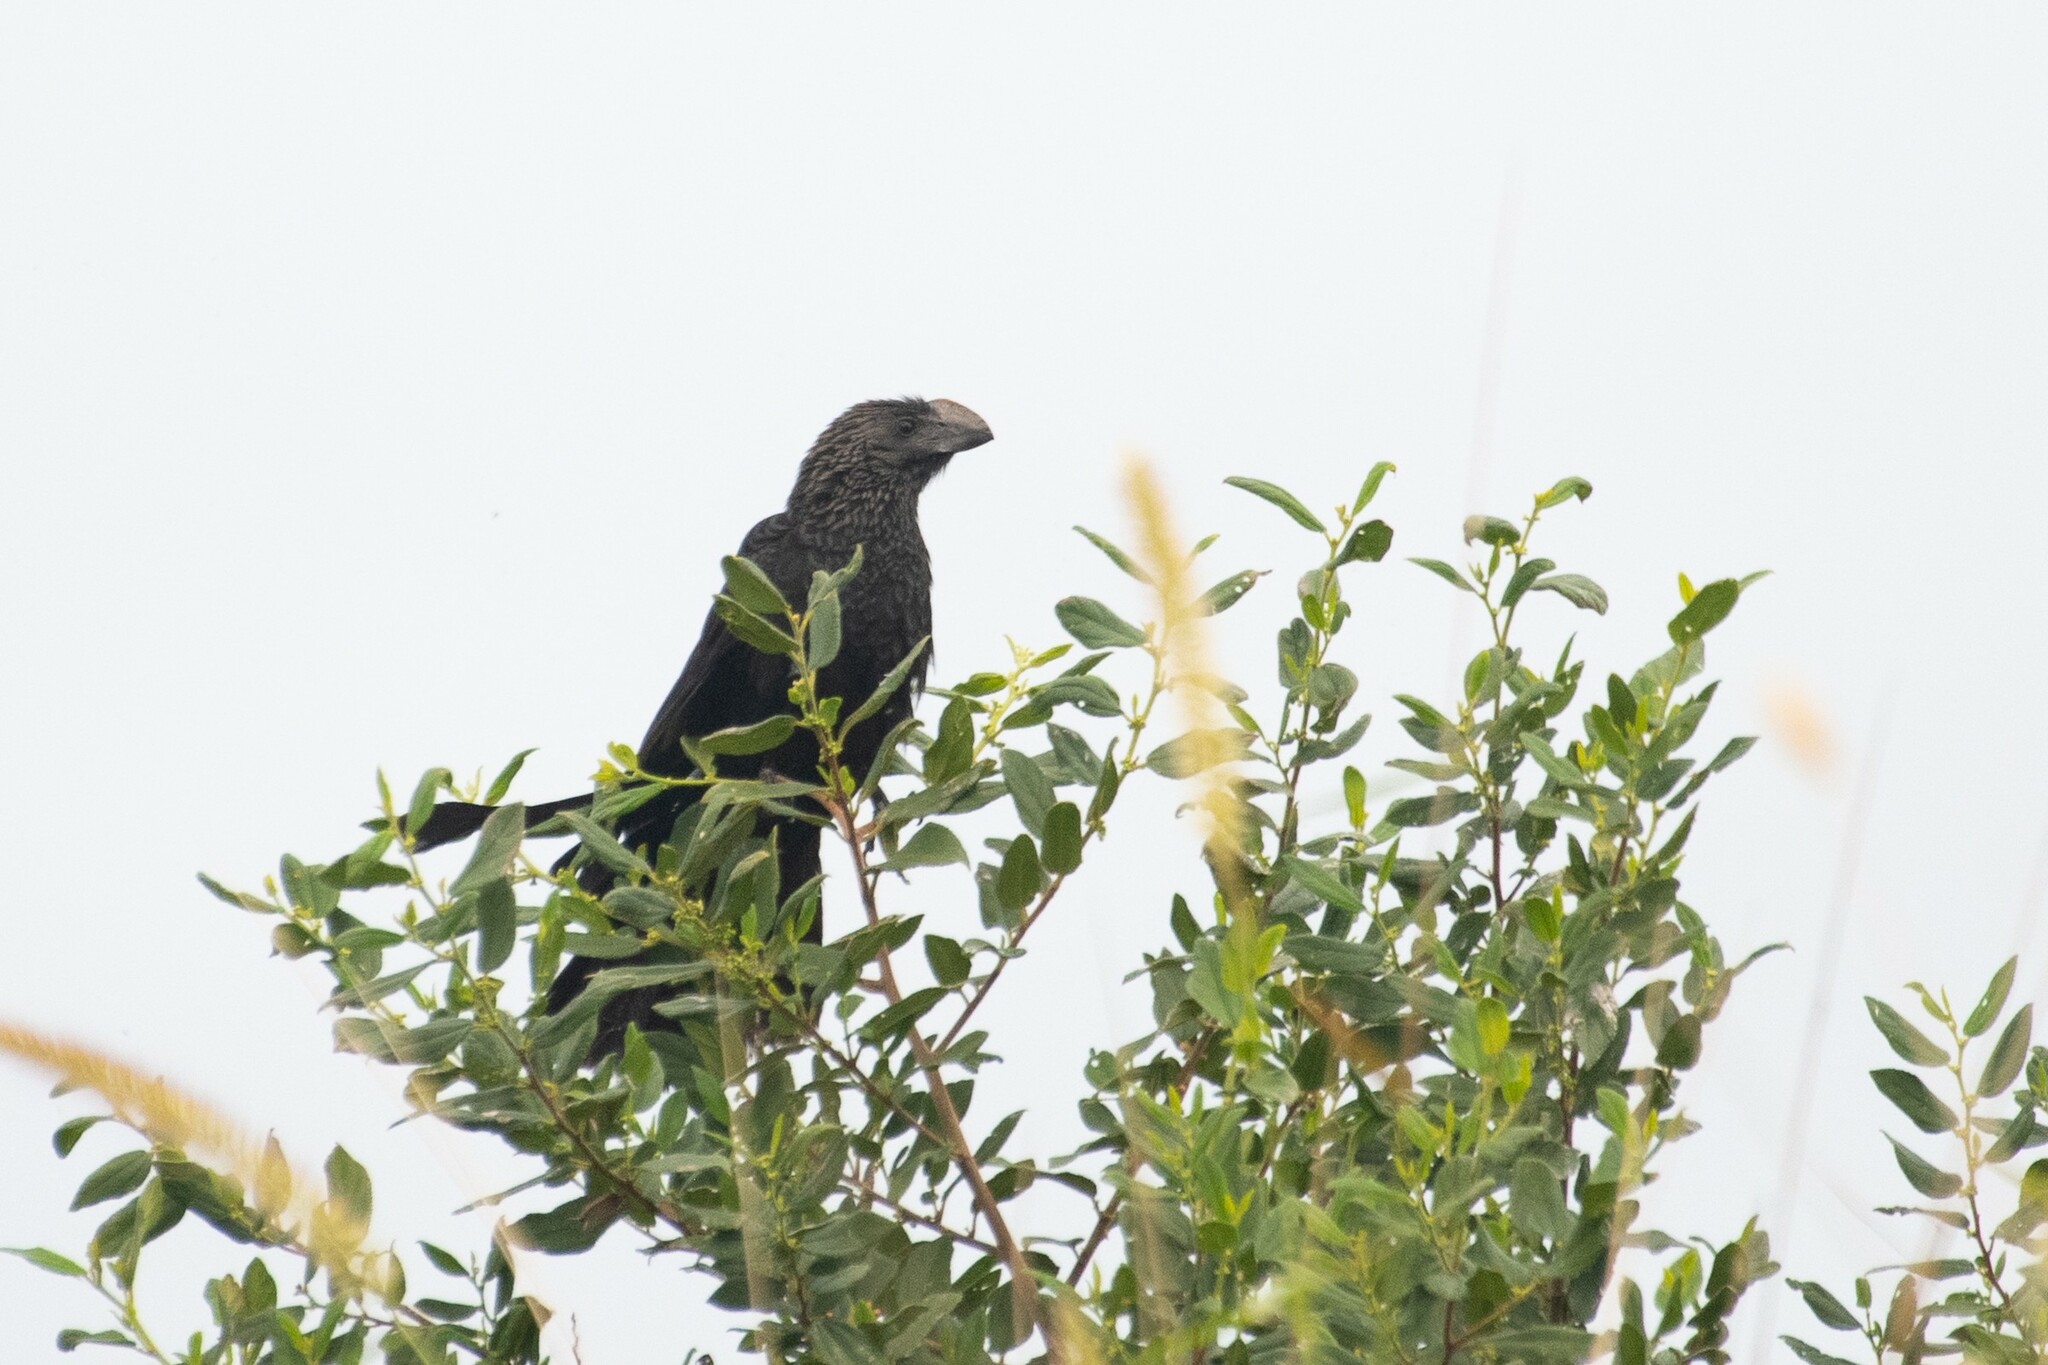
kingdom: Animalia
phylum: Chordata
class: Aves
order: Cuculiformes
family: Cuculidae
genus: Crotophaga
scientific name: Crotophaga ani
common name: Smooth-billed ani
